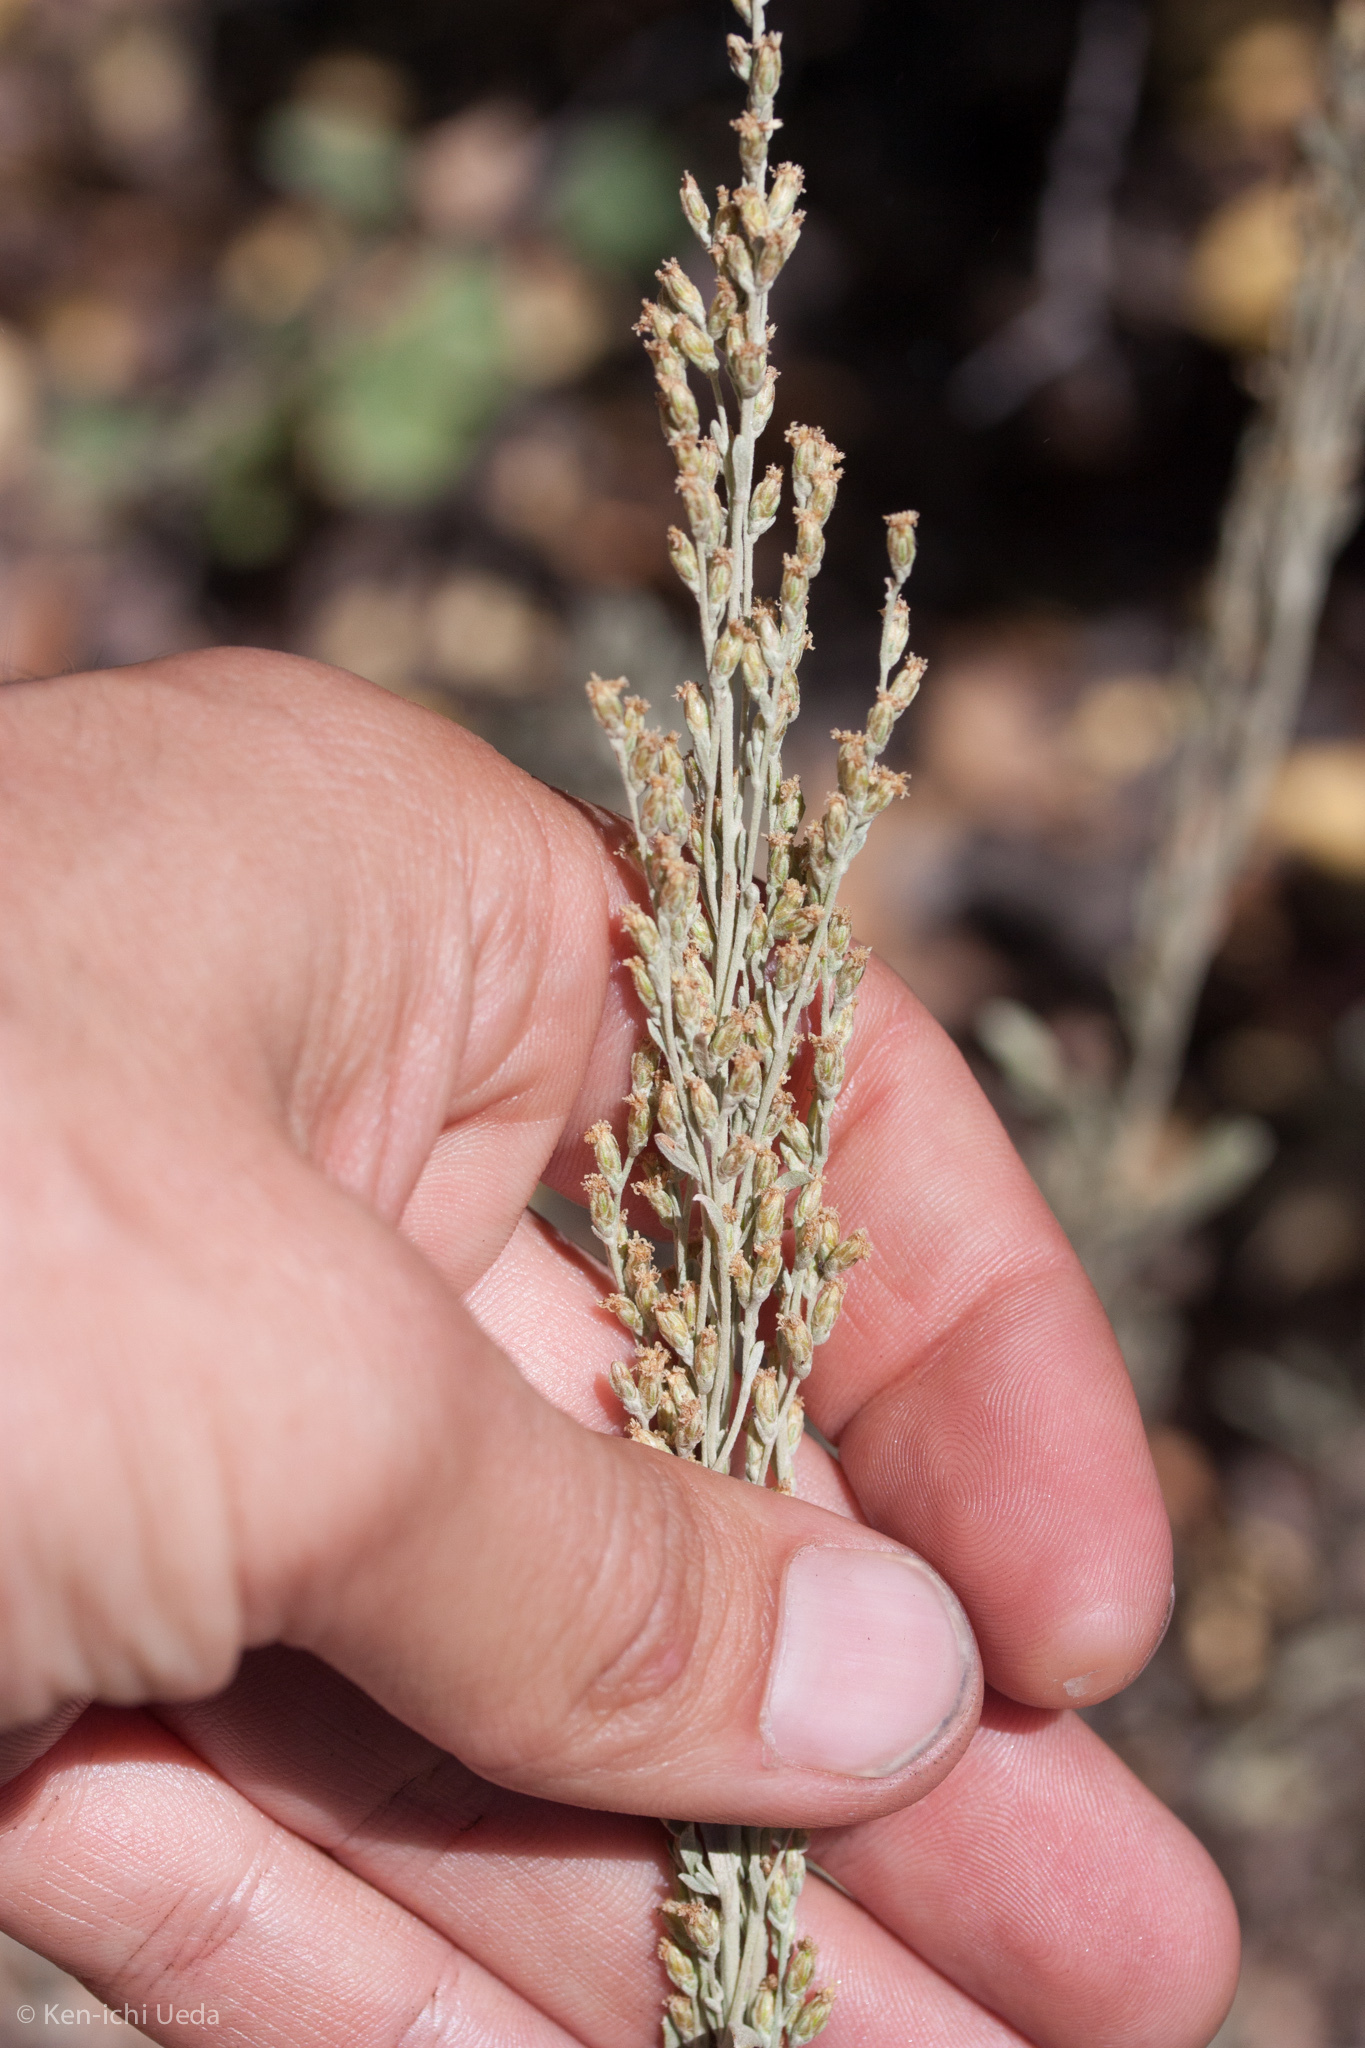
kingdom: Plantae
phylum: Tracheophyta
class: Magnoliopsida
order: Asterales
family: Asteraceae
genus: Artemisia
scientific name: Artemisia tridentata
